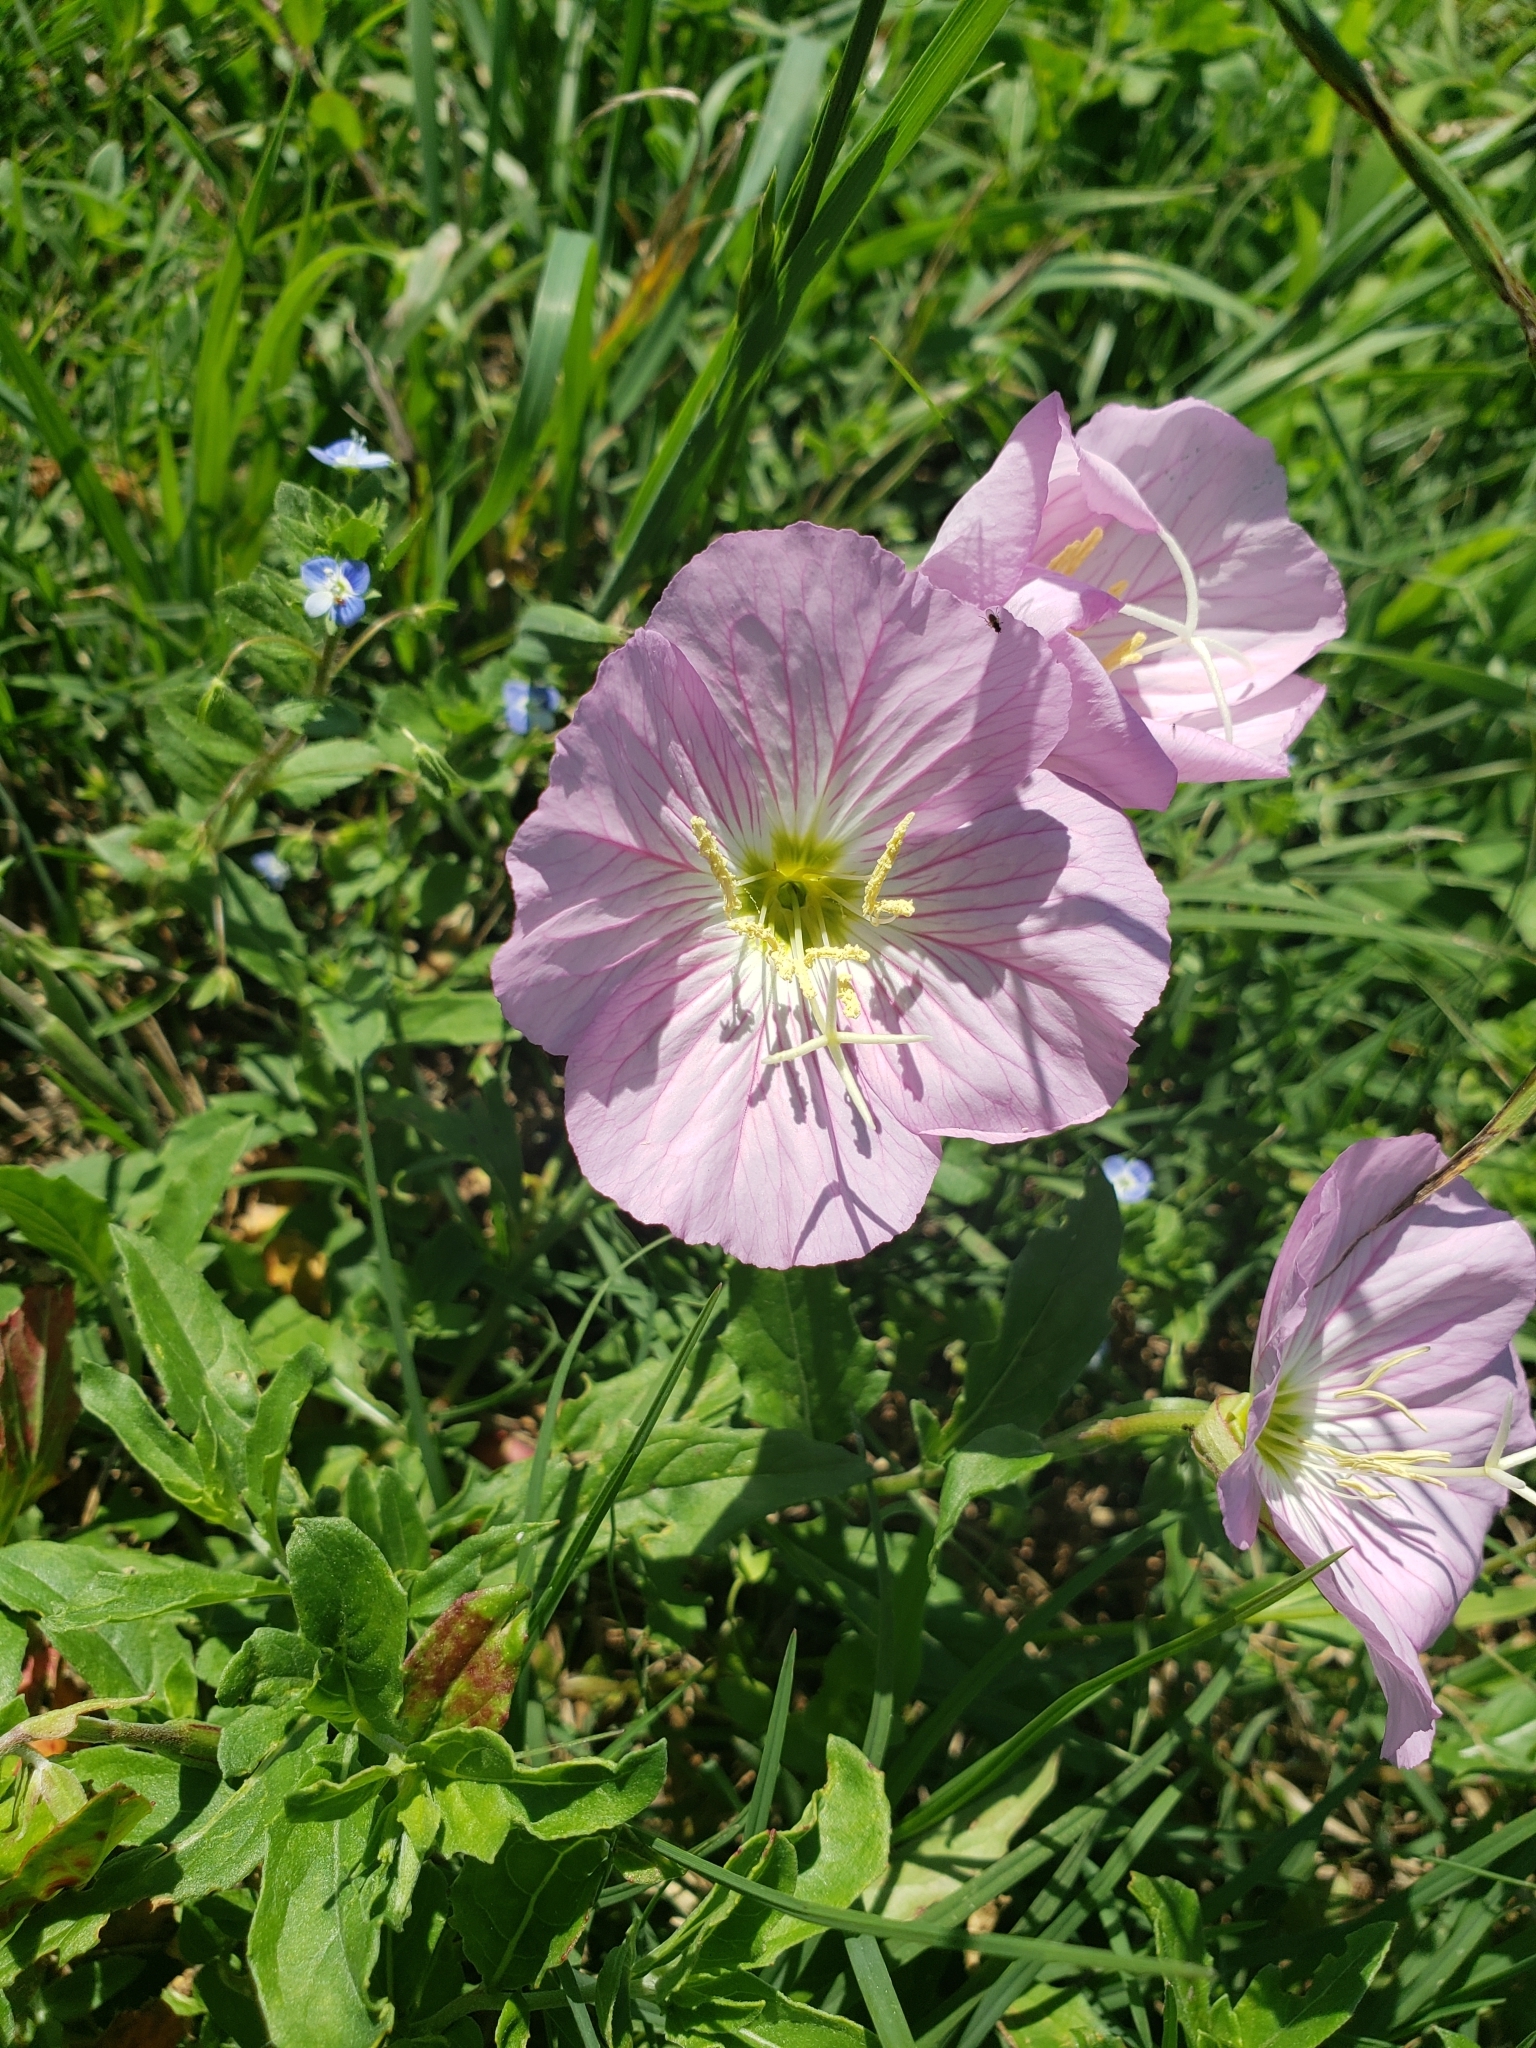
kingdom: Plantae
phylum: Tracheophyta
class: Magnoliopsida
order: Myrtales
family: Onagraceae
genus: Oenothera
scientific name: Oenothera speciosa
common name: White evening-primrose
